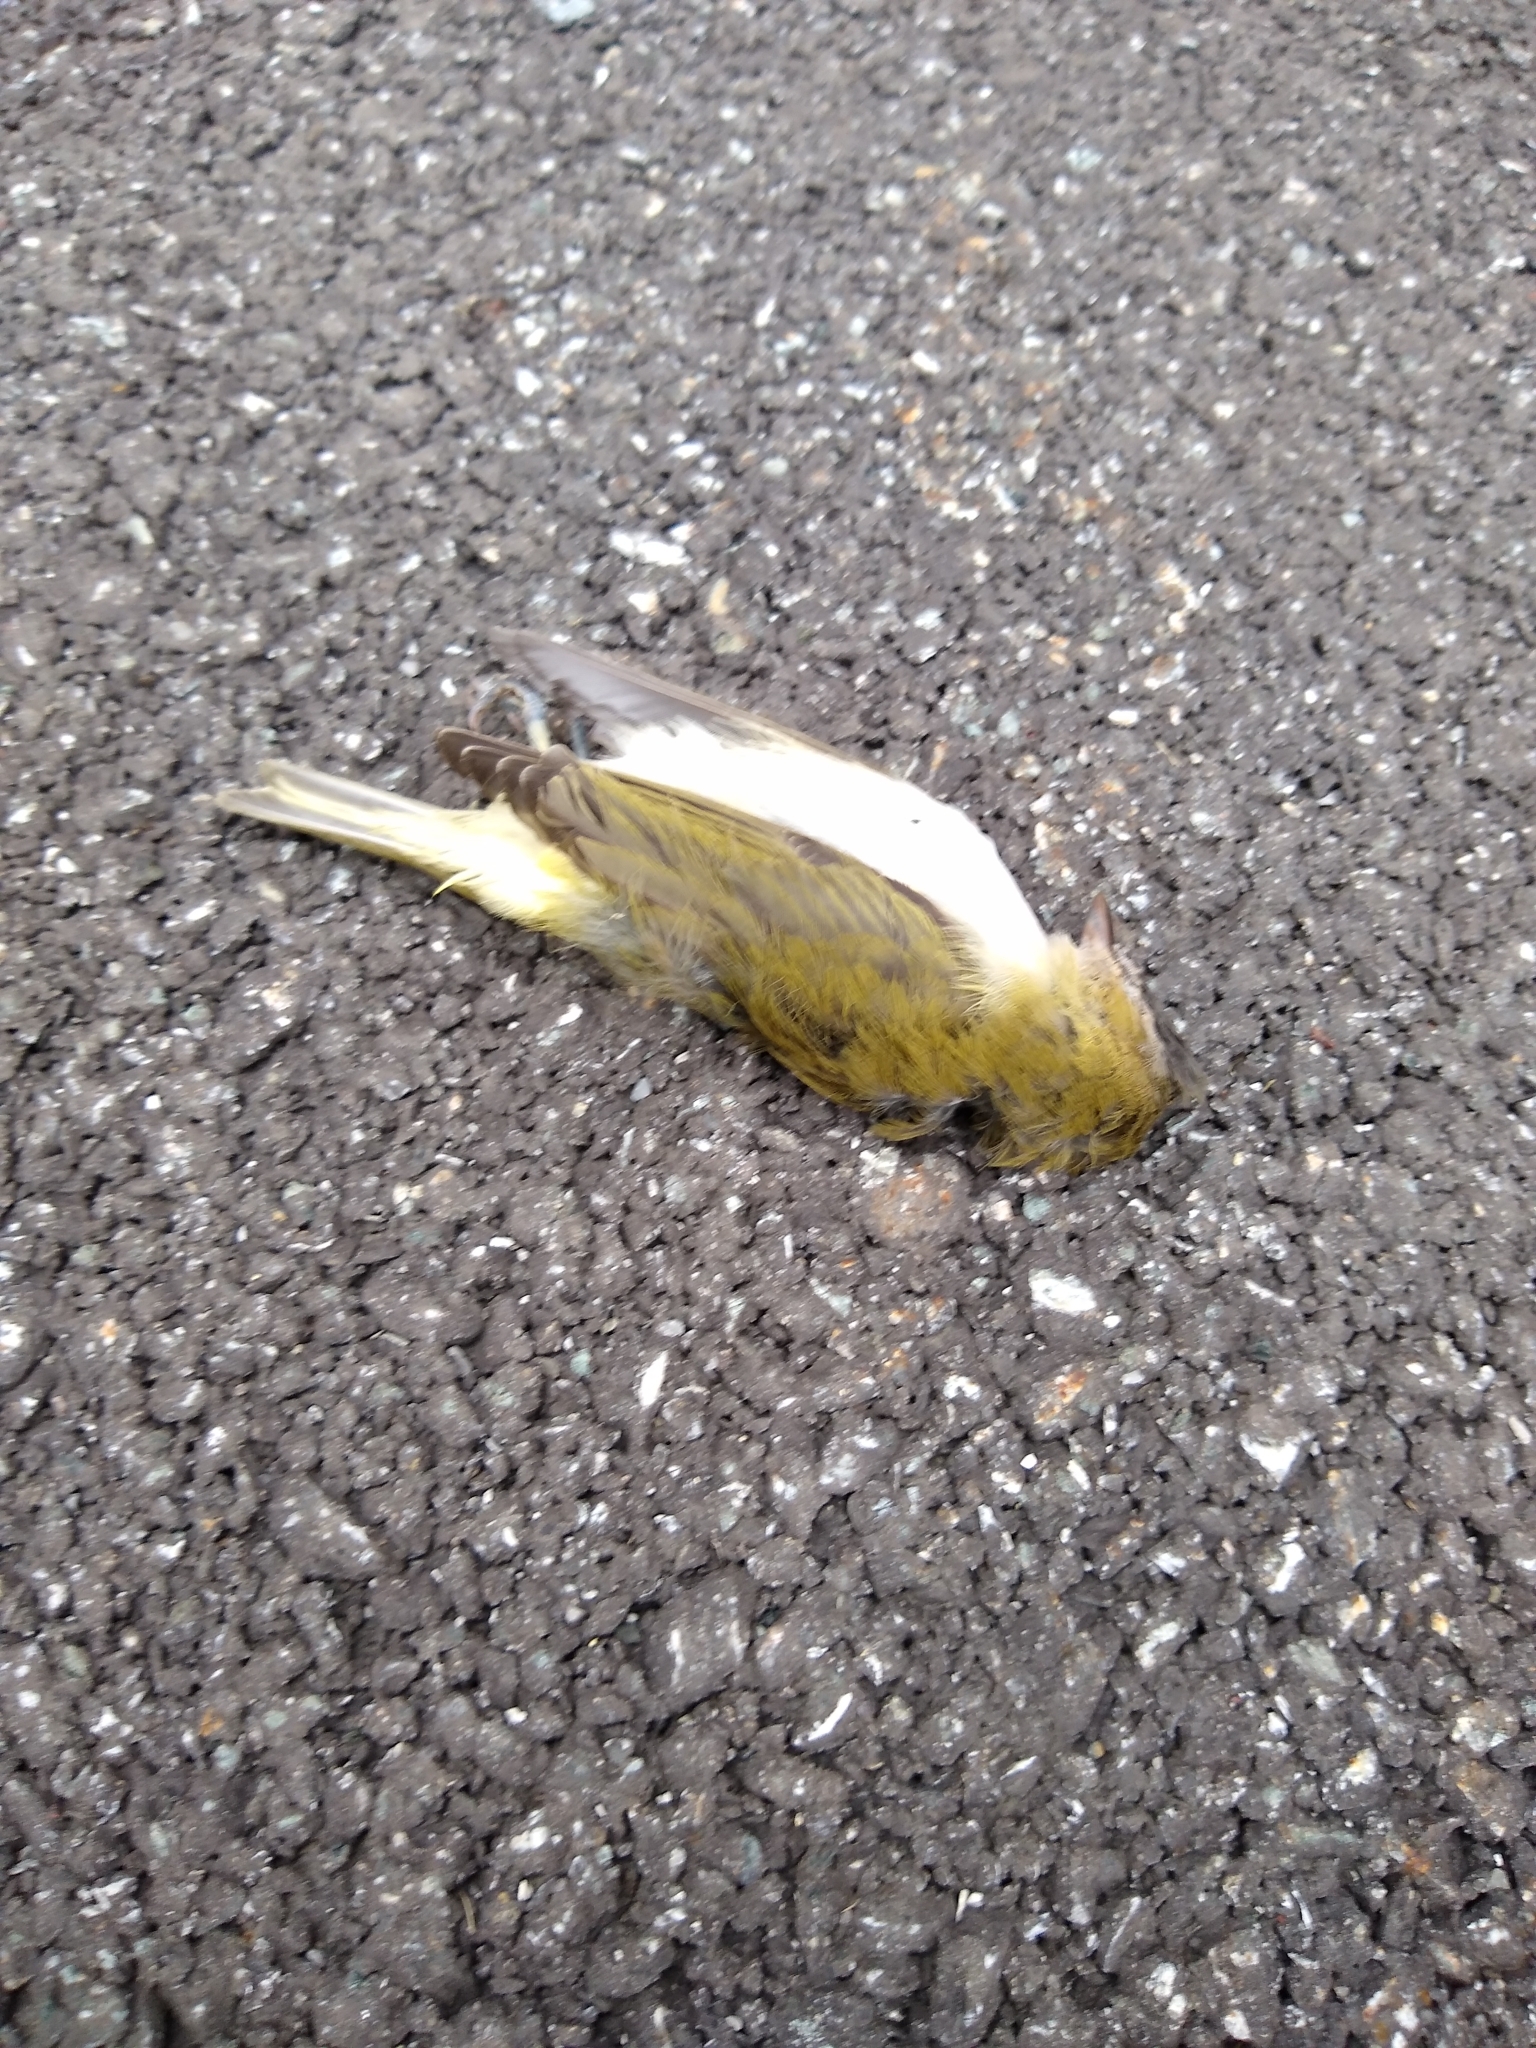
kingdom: Animalia
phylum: Chordata
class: Aves
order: Passeriformes
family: Vireonidae
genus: Vireo
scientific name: Vireo olivaceus
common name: Red-eyed vireo
